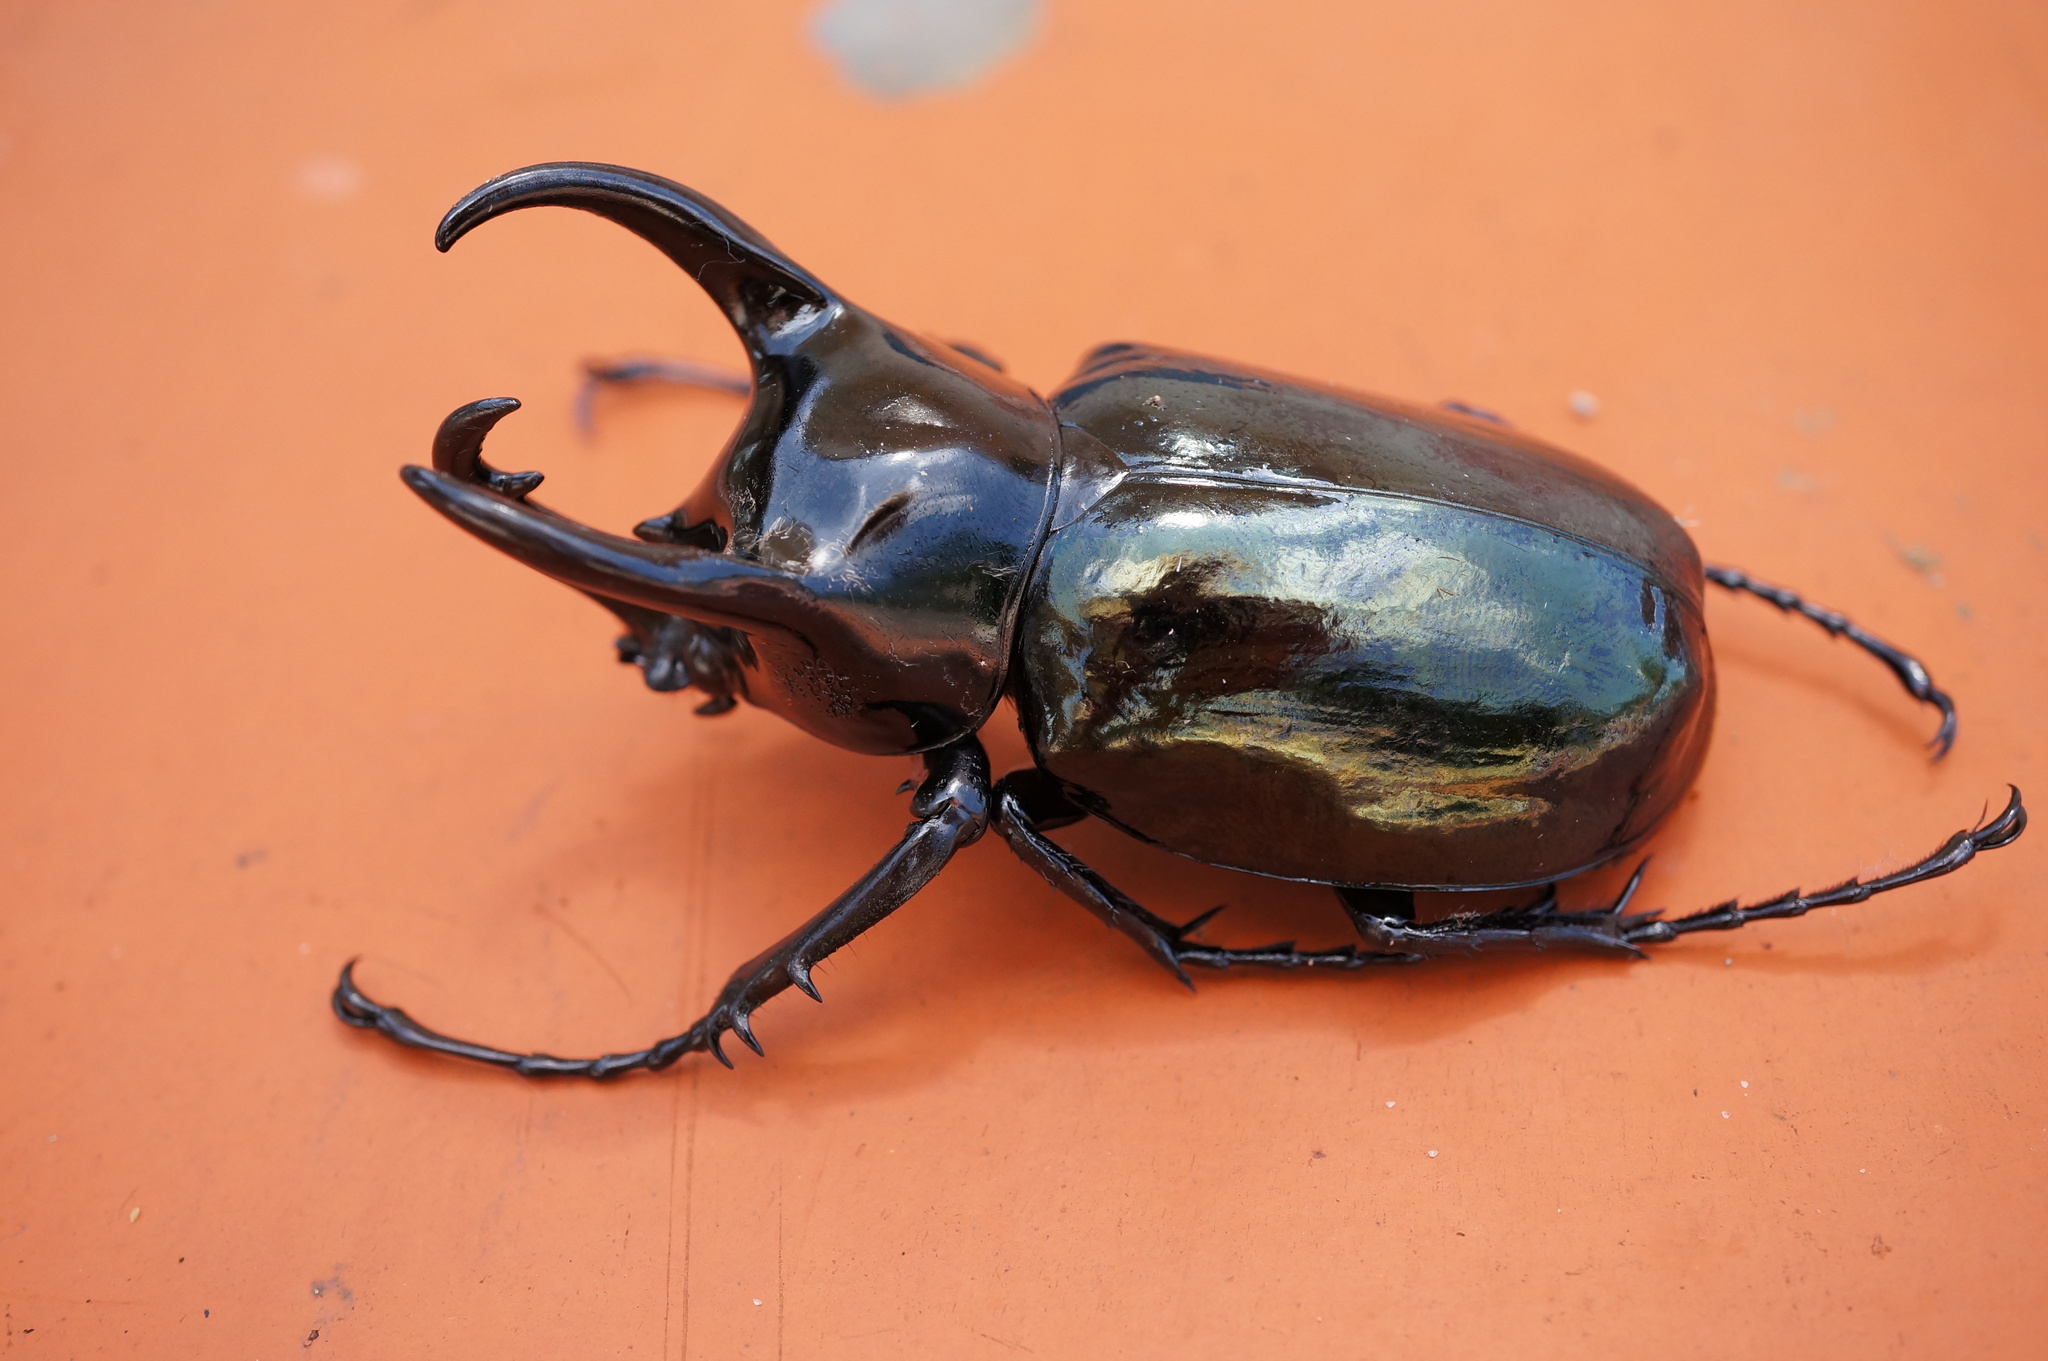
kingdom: Animalia
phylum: Arthropoda
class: Insecta
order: Coleoptera
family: Scarabaeidae
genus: Chalcosoma
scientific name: Chalcosoma chiron
